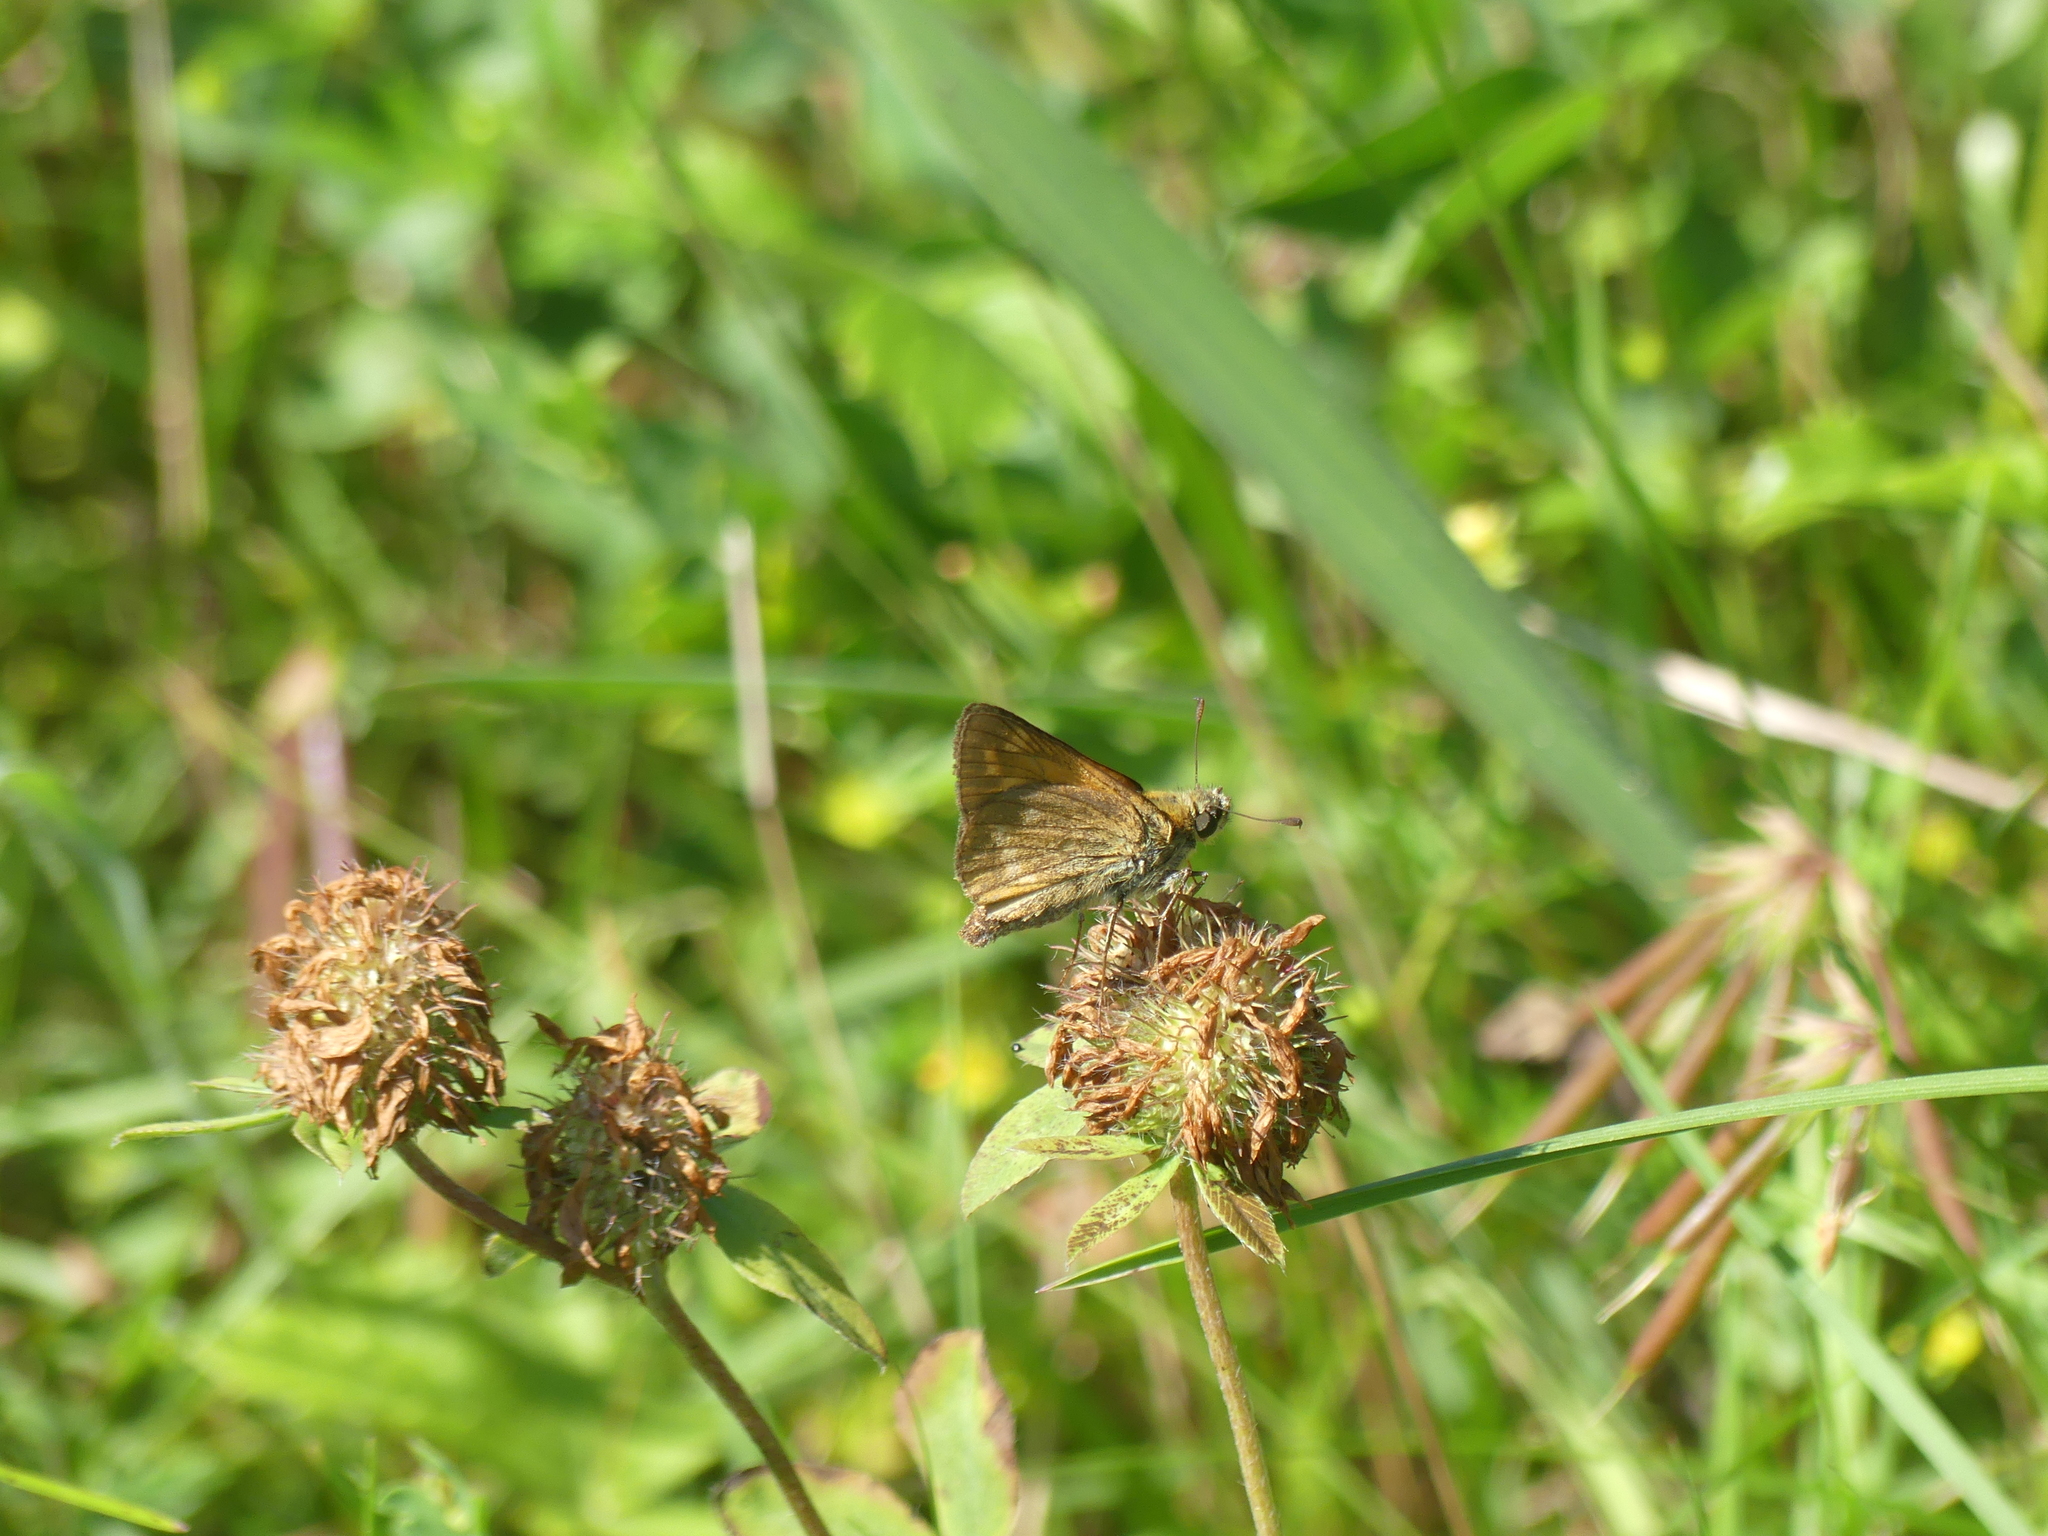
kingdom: Animalia
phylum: Arthropoda
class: Insecta
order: Lepidoptera
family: Hesperiidae
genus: Ochlodes
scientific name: Ochlodes venata
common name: Large skipper
